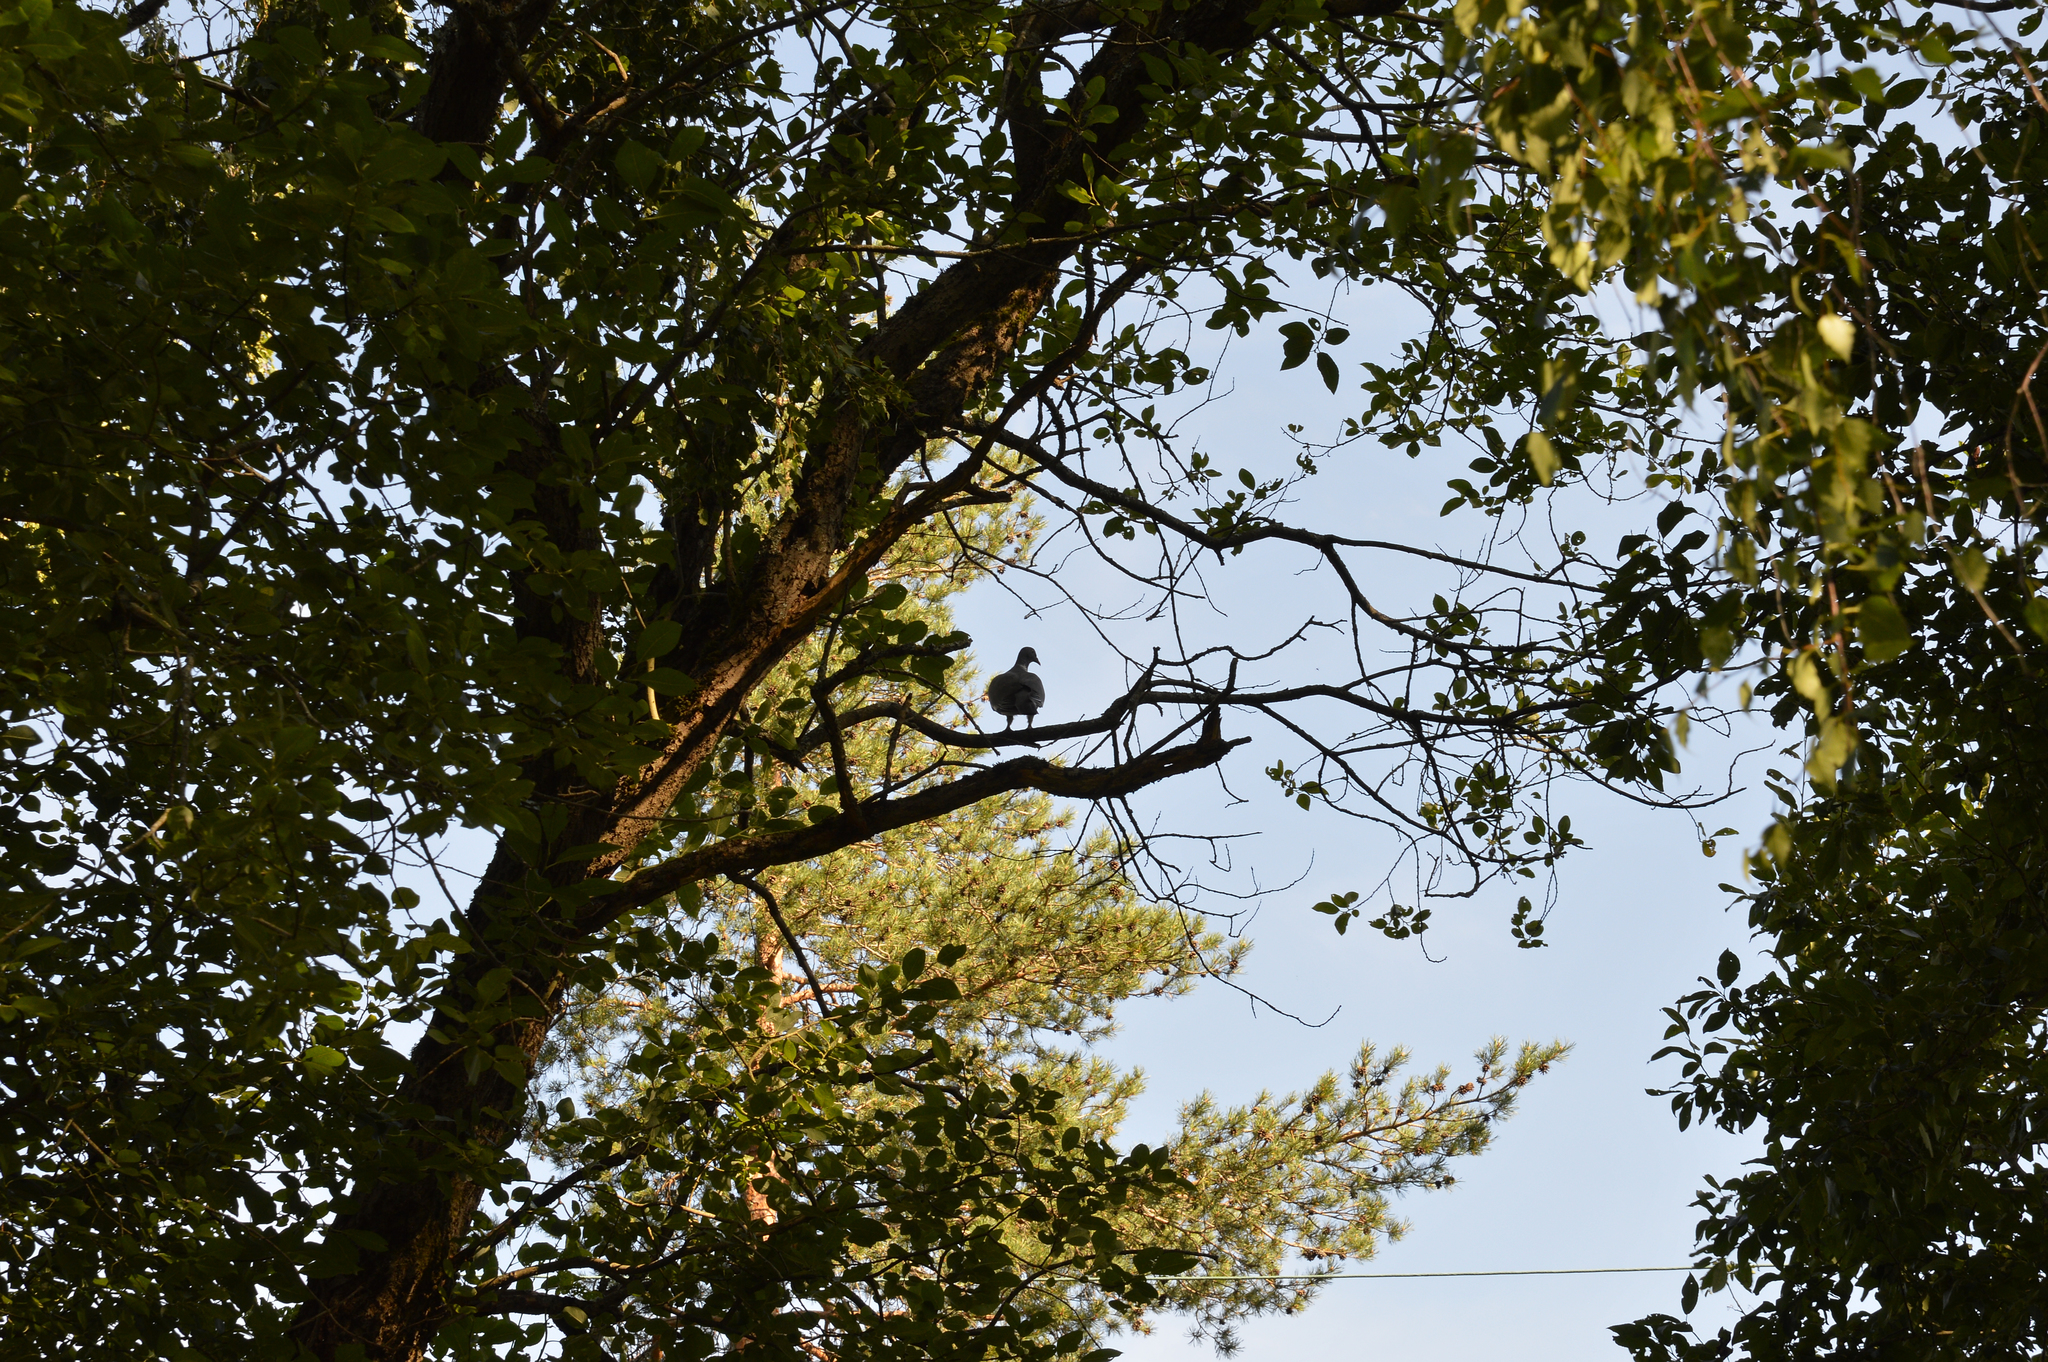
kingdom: Animalia
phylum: Chordata
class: Aves
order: Columbiformes
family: Columbidae
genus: Columba
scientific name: Columba palumbus
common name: Common wood pigeon
